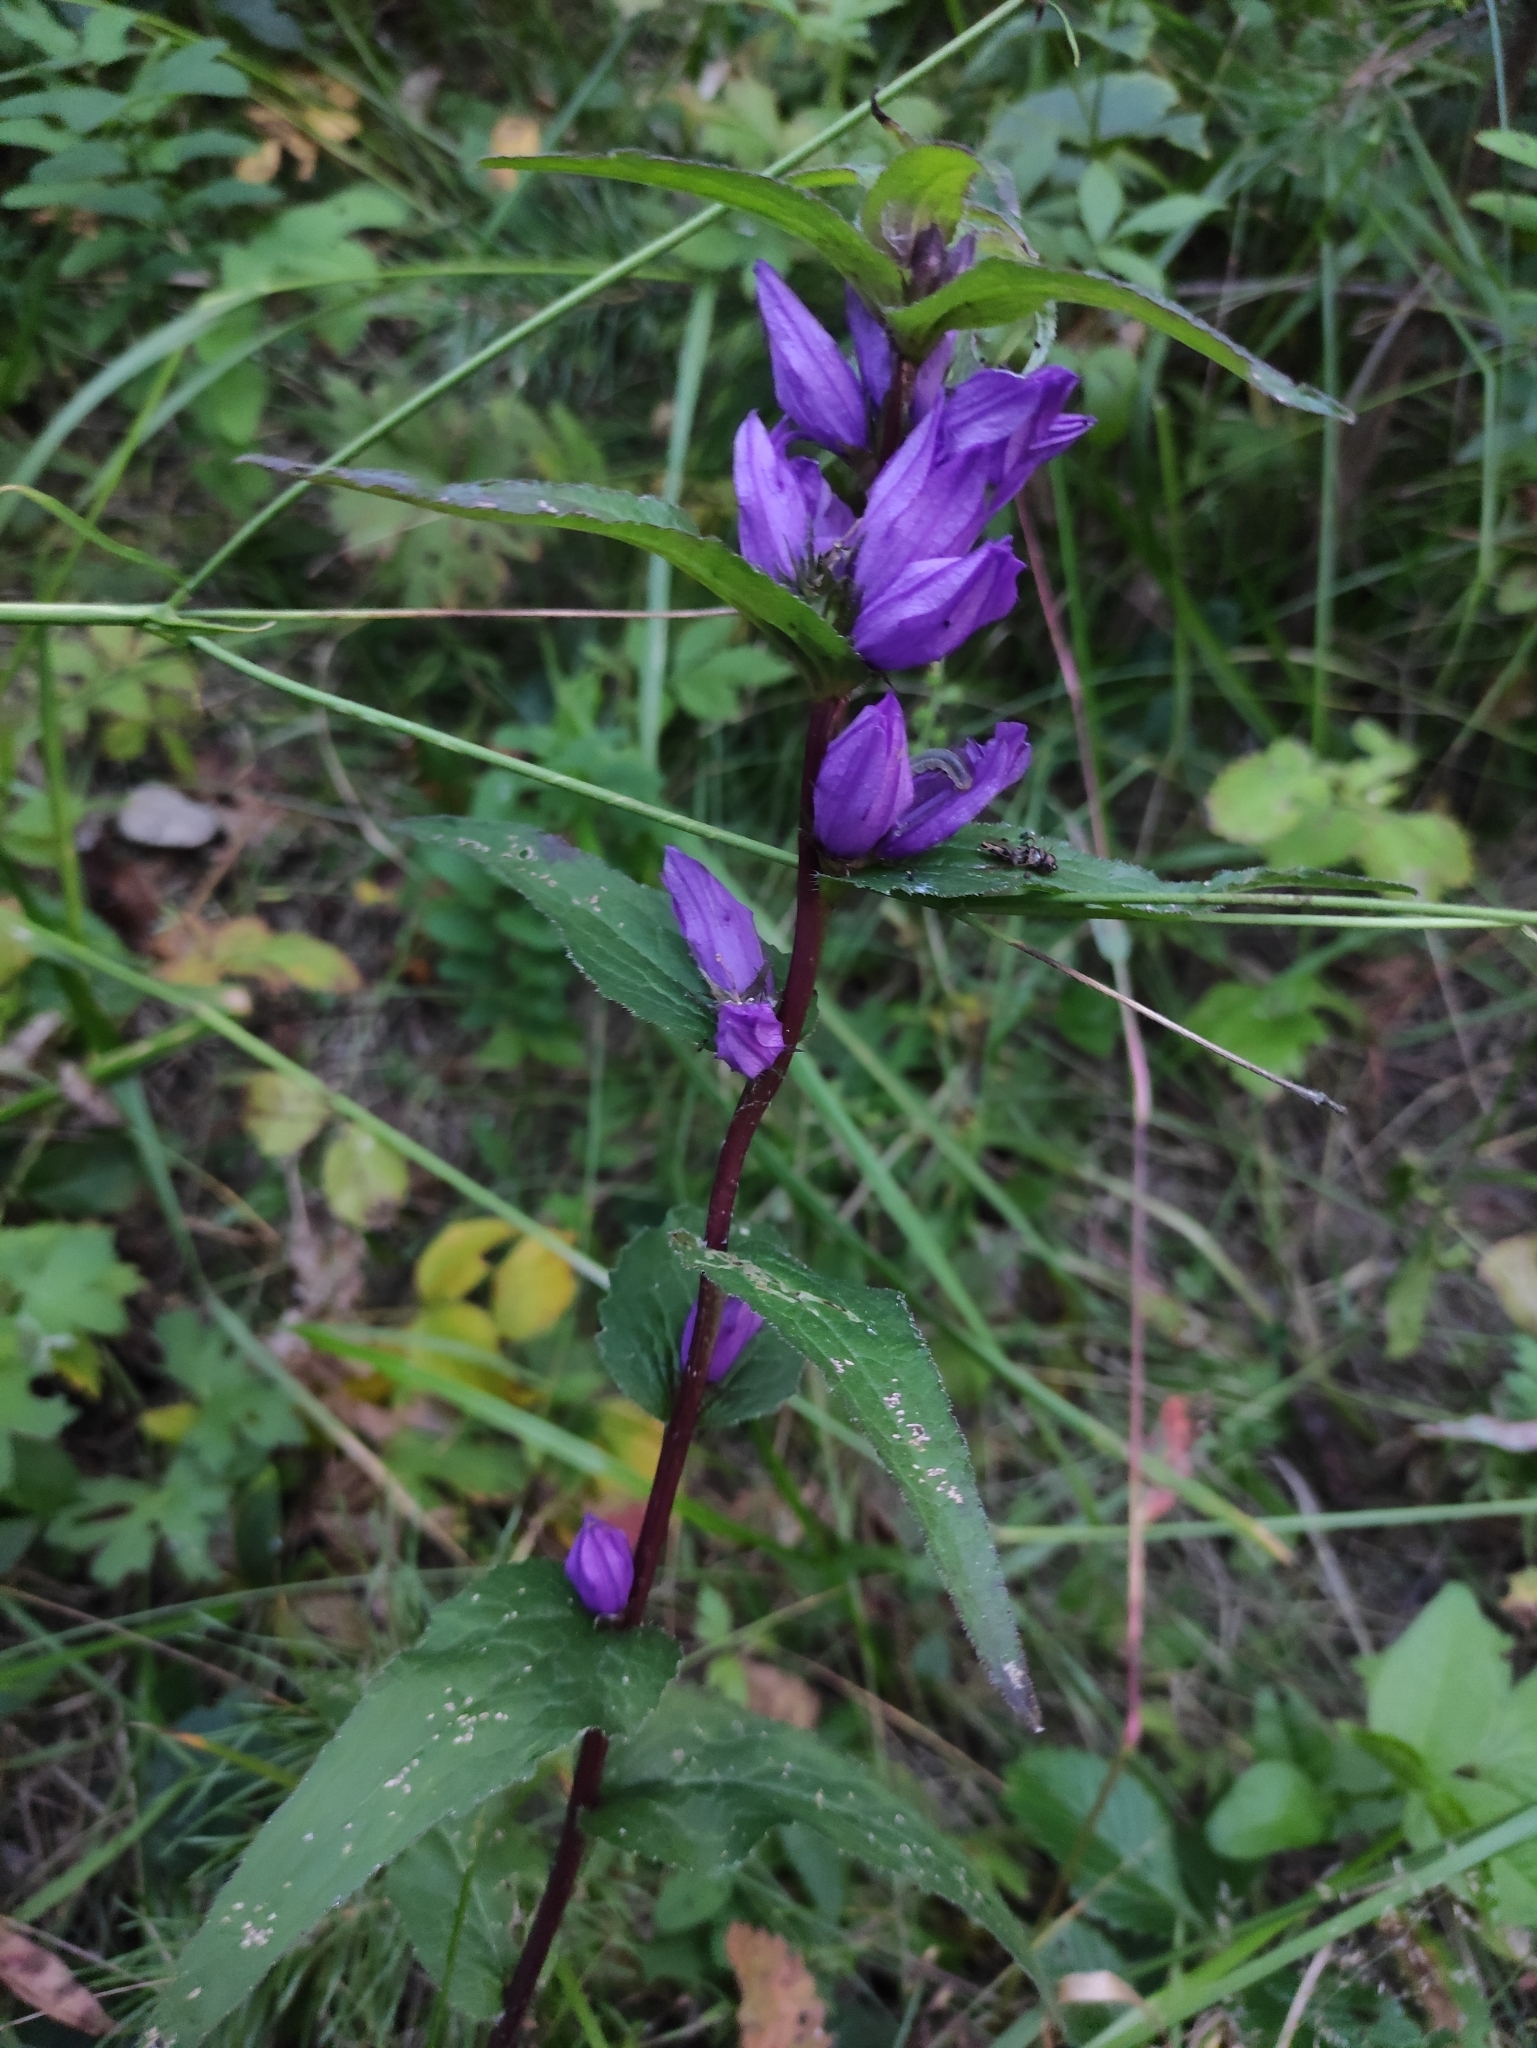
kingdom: Plantae
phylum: Tracheophyta
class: Magnoliopsida
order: Asterales
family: Campanulaceae
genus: Campanula
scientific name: Campanula glomerata
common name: Clustered bellflower
